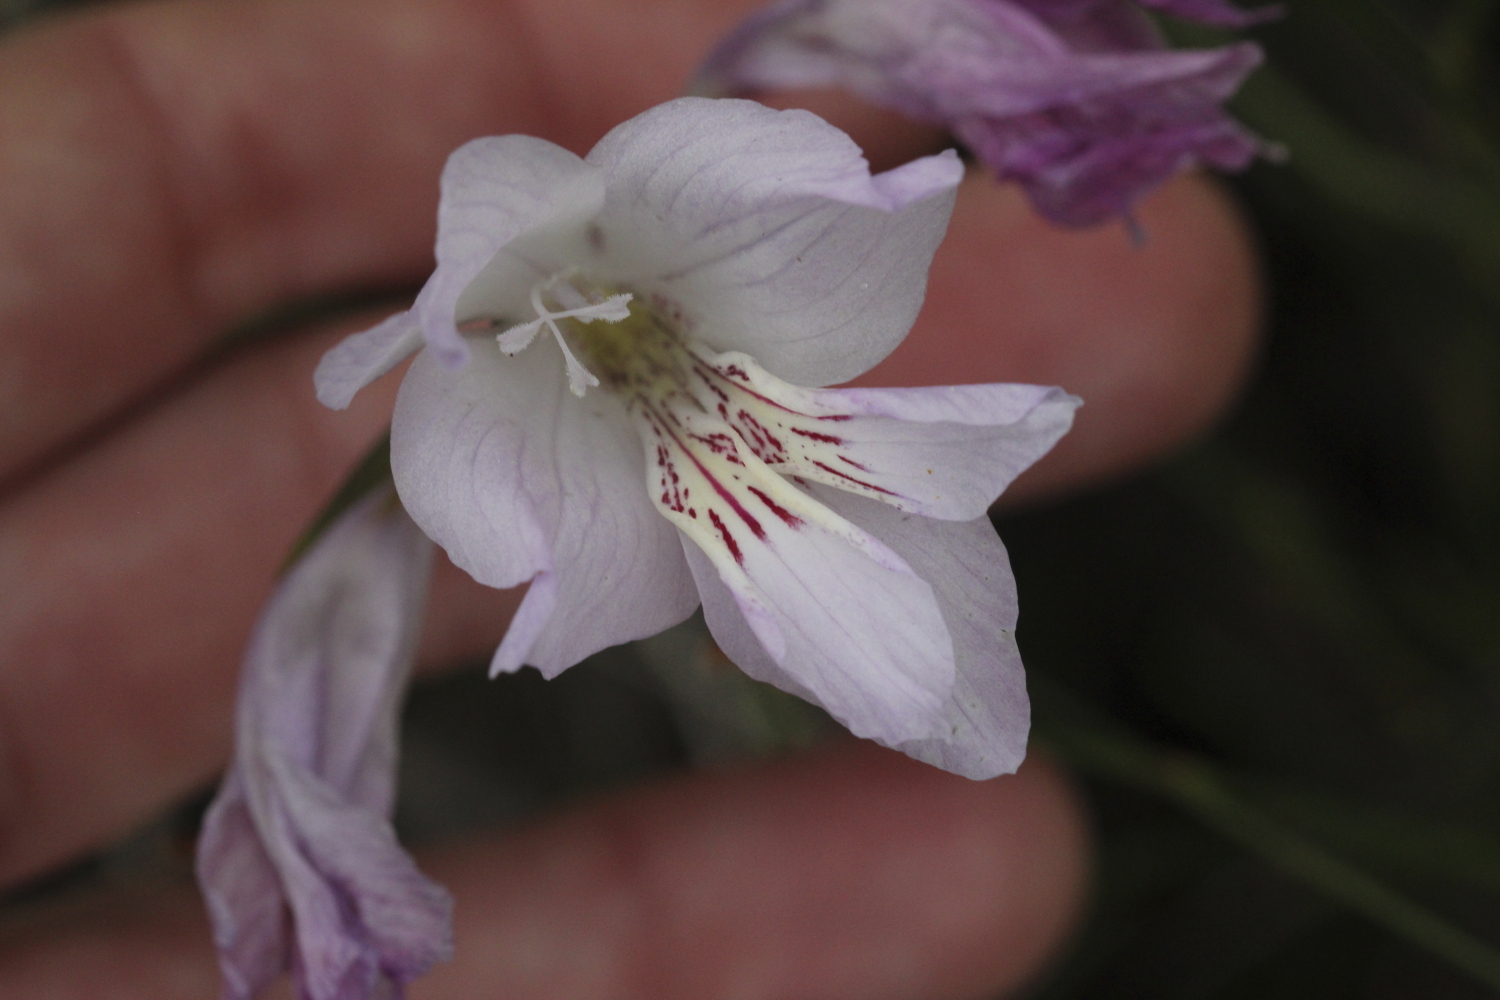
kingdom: Plantae
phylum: Tracheophyta
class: Liliopsida
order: Asparagales
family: Iridaceae
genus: Gladiolus
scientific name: Gladiolus blommesteinii
